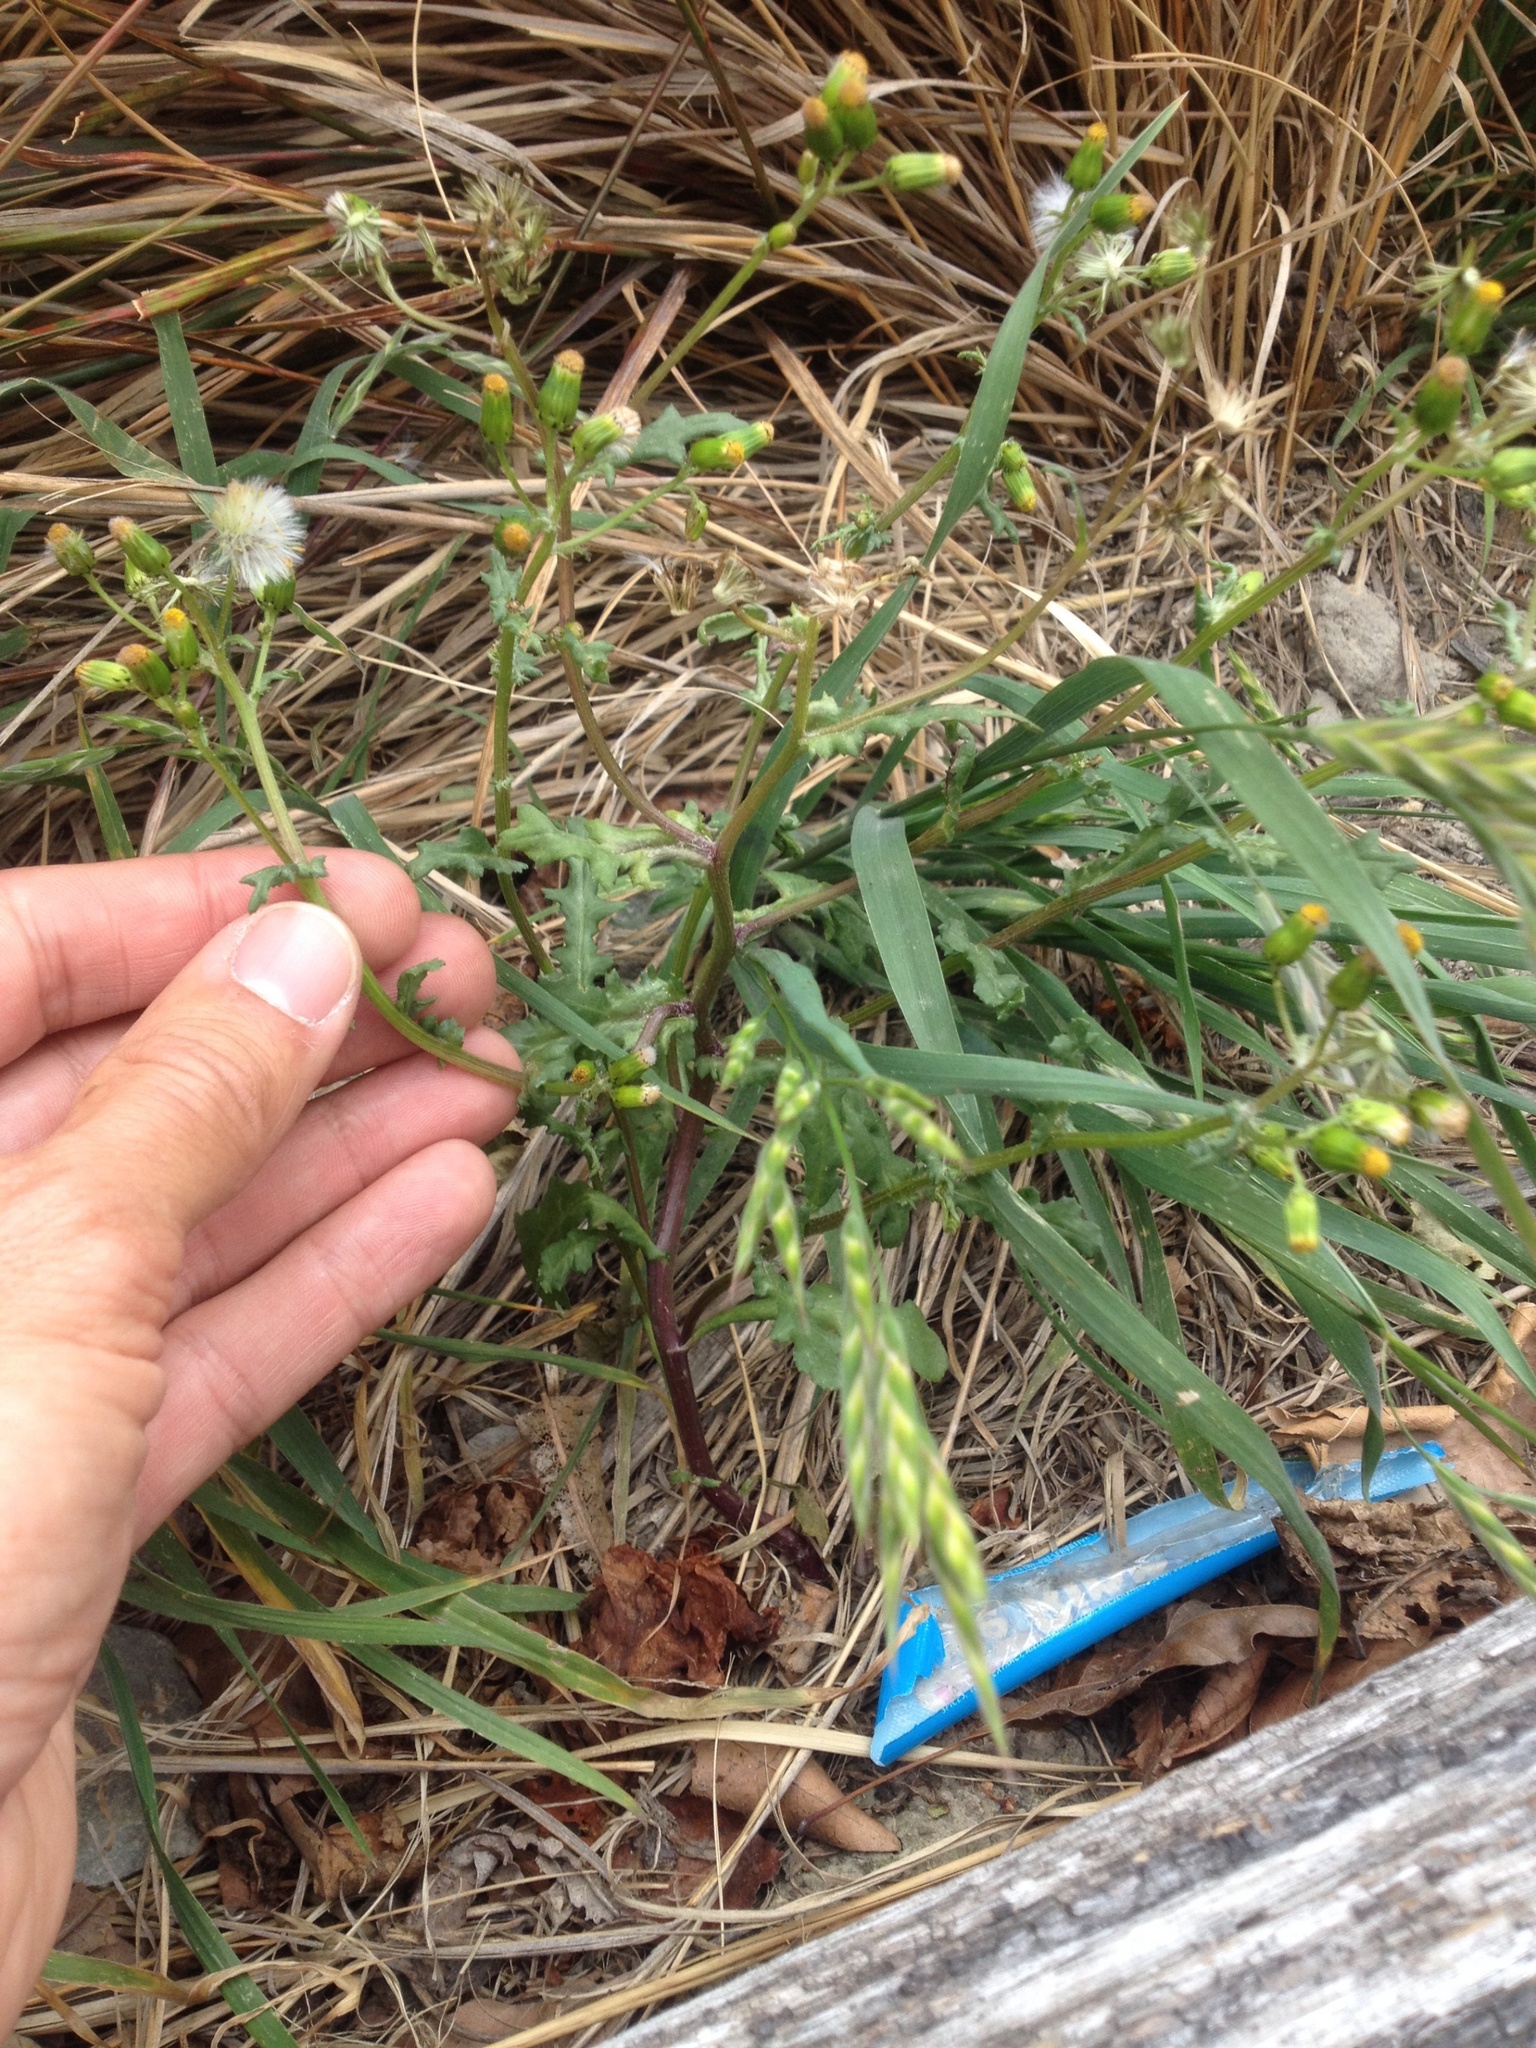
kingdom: Plantae
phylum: Tracheophyta
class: Magnoliopsida
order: Asterales
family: Asteraceae
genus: Senecio
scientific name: Senecio vulgaris
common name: Old-man-in-the-spring
